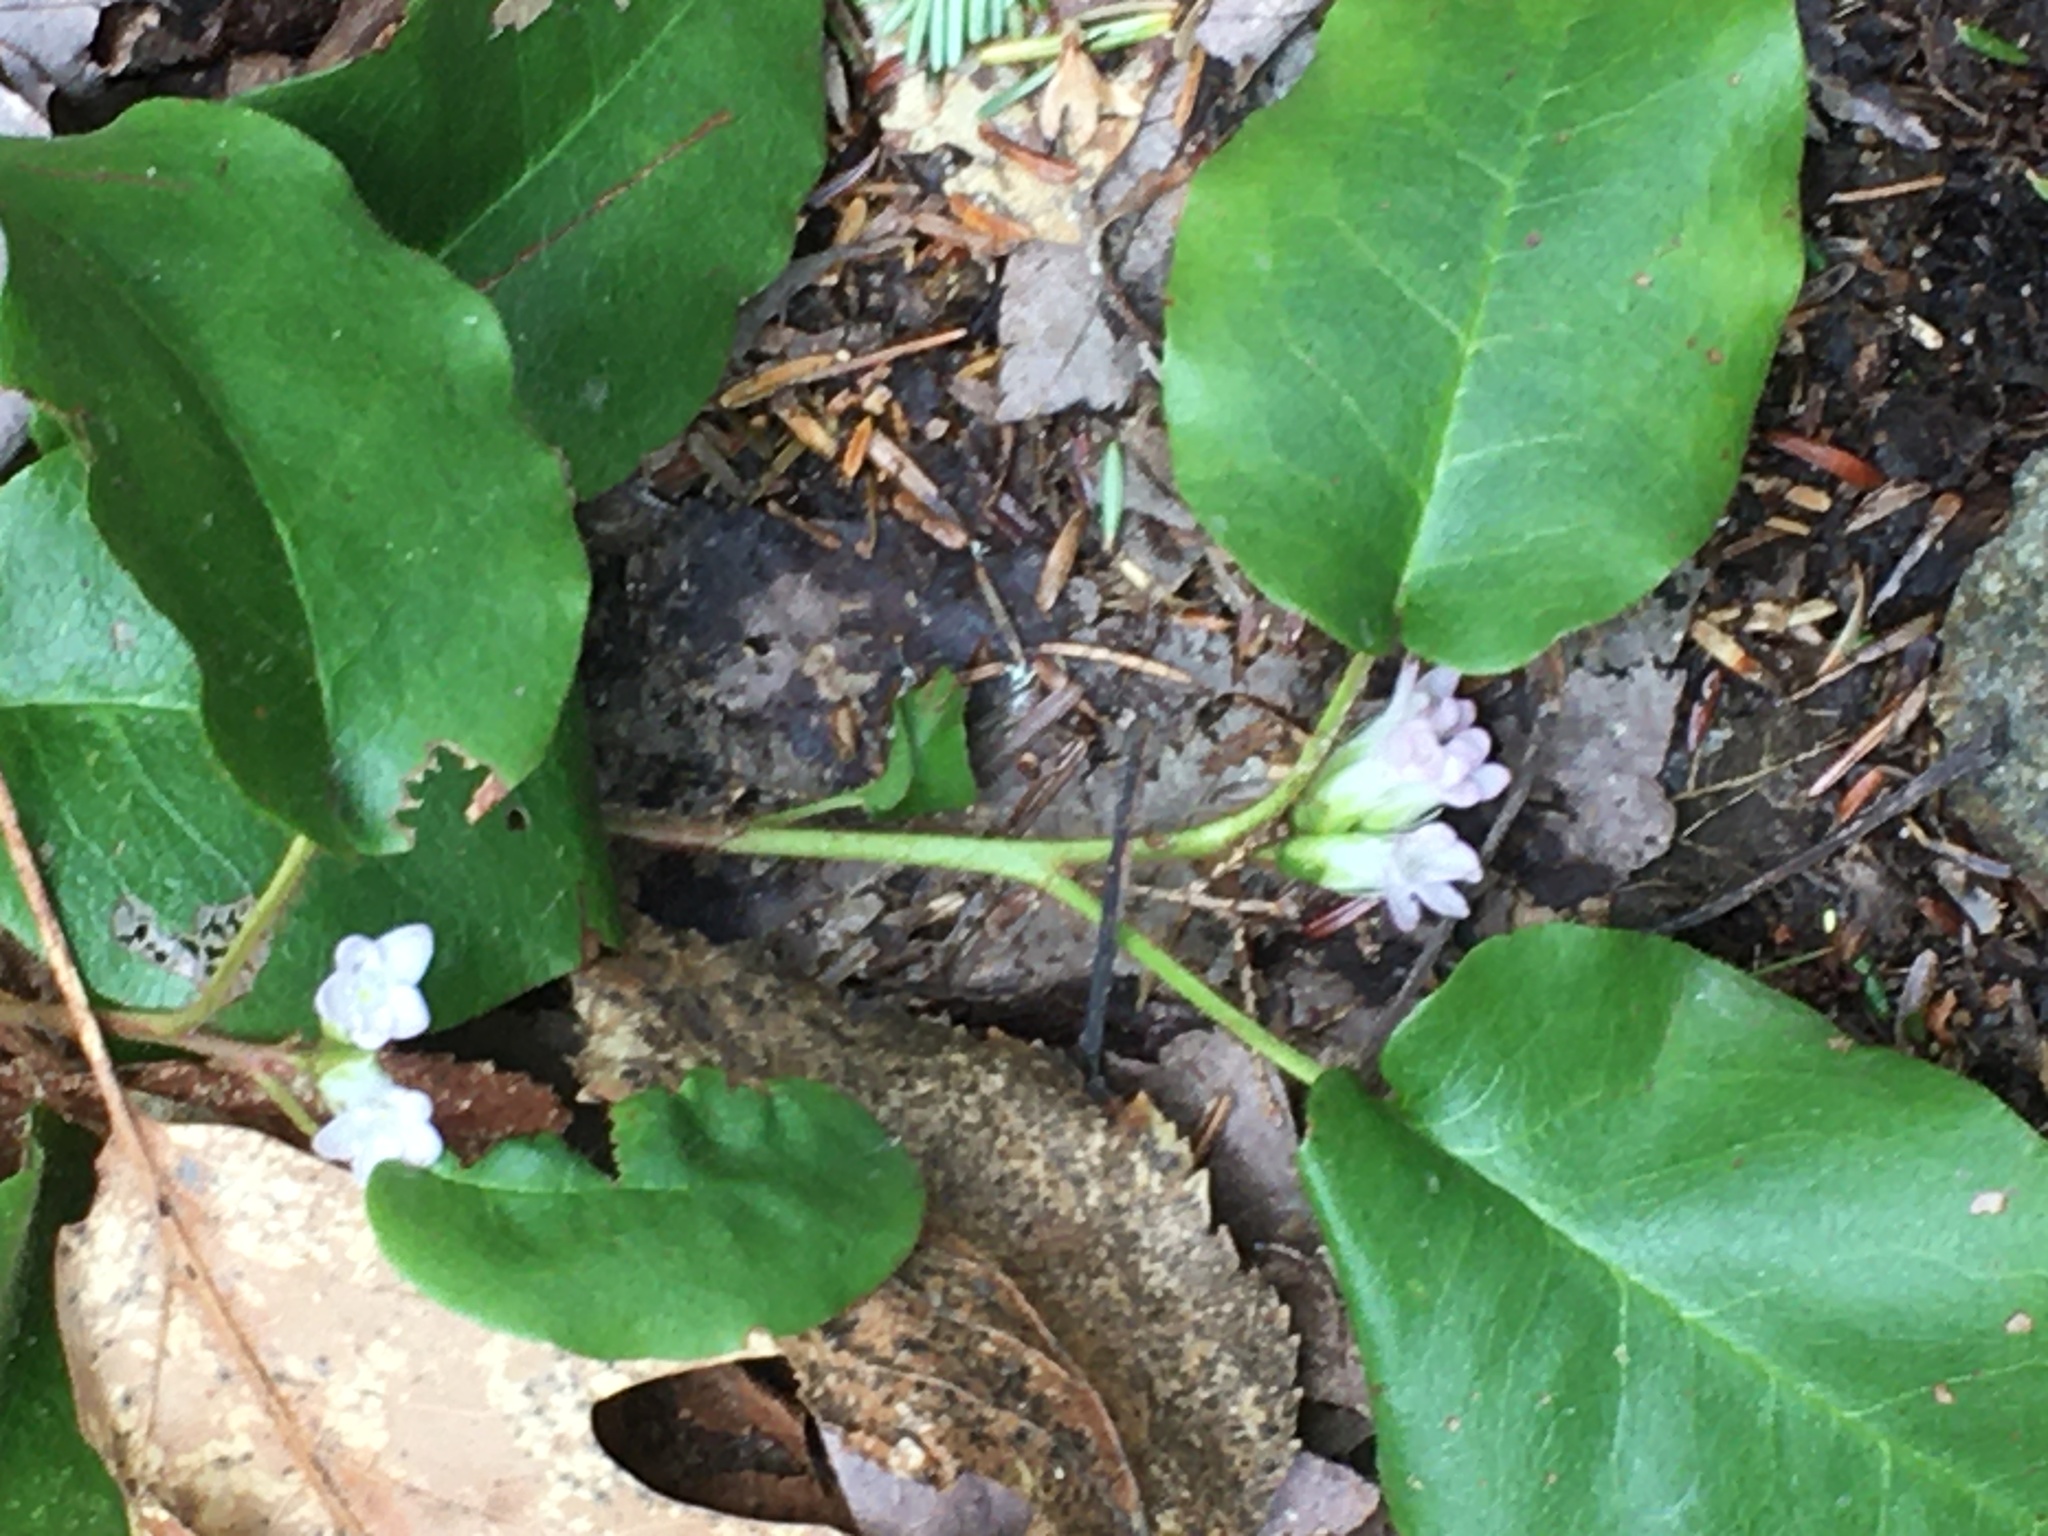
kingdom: Plantae
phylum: Tracheophyta
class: Magnoliopsida
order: Ericales
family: Ericaceae
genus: Epigaea
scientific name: Epigaea repens
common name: Gravelroot
